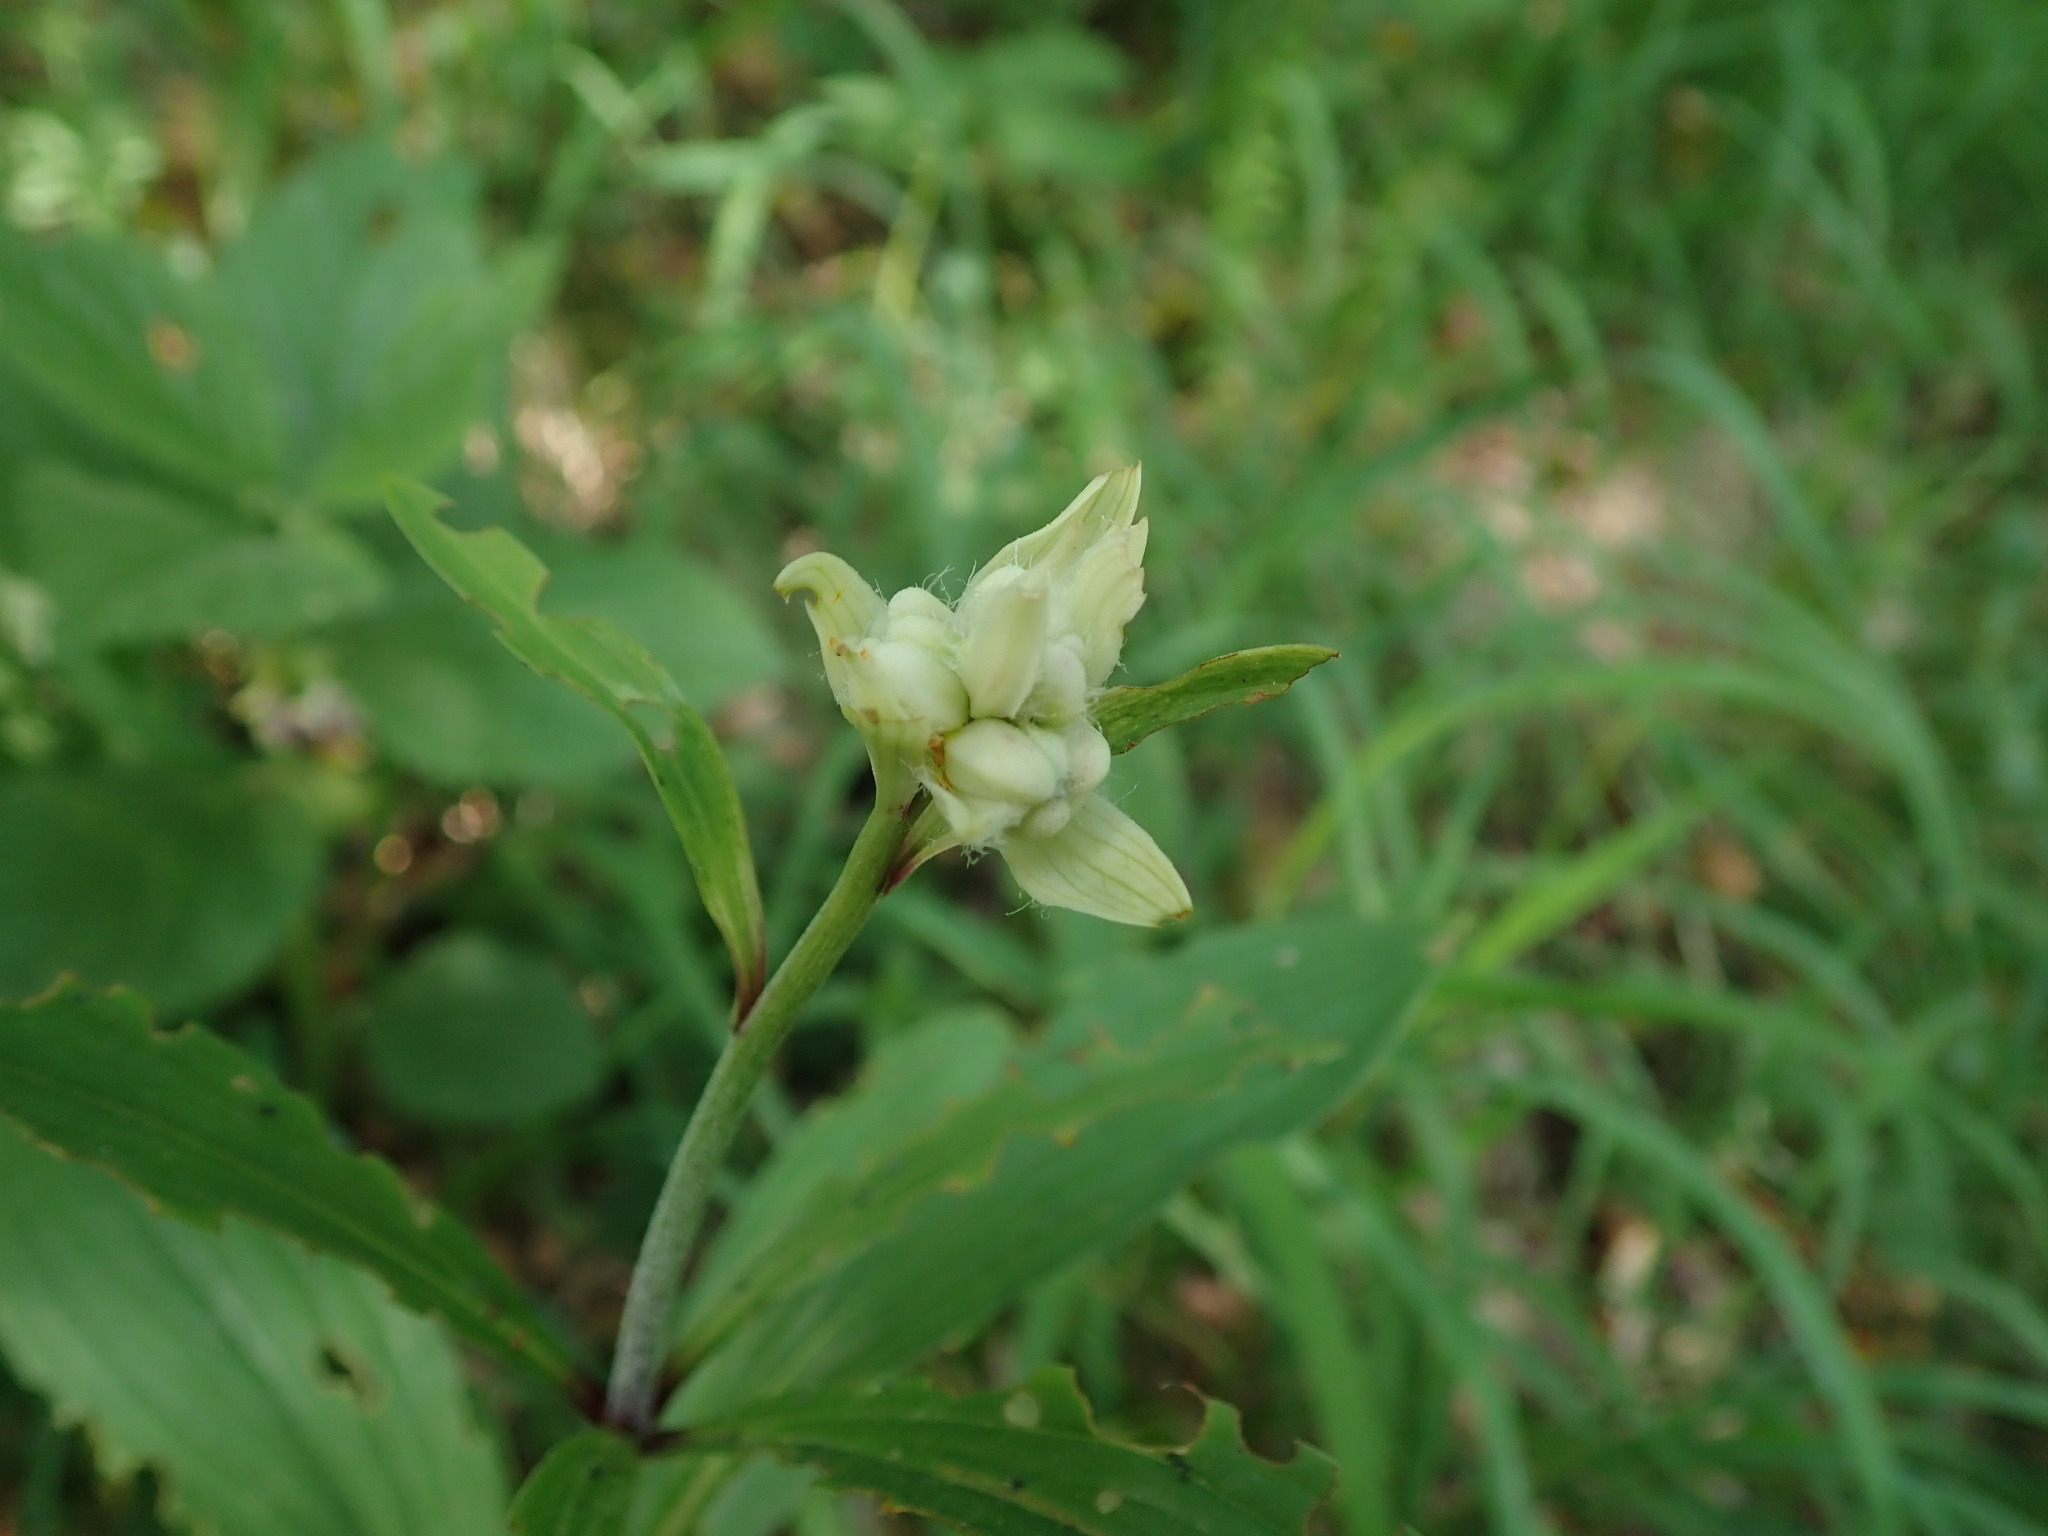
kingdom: Plantae
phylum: Tracheophyta
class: Liliopsida
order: Liliales
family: Liliaceae
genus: Lilium
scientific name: Lilium martagon
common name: Martagon lily
